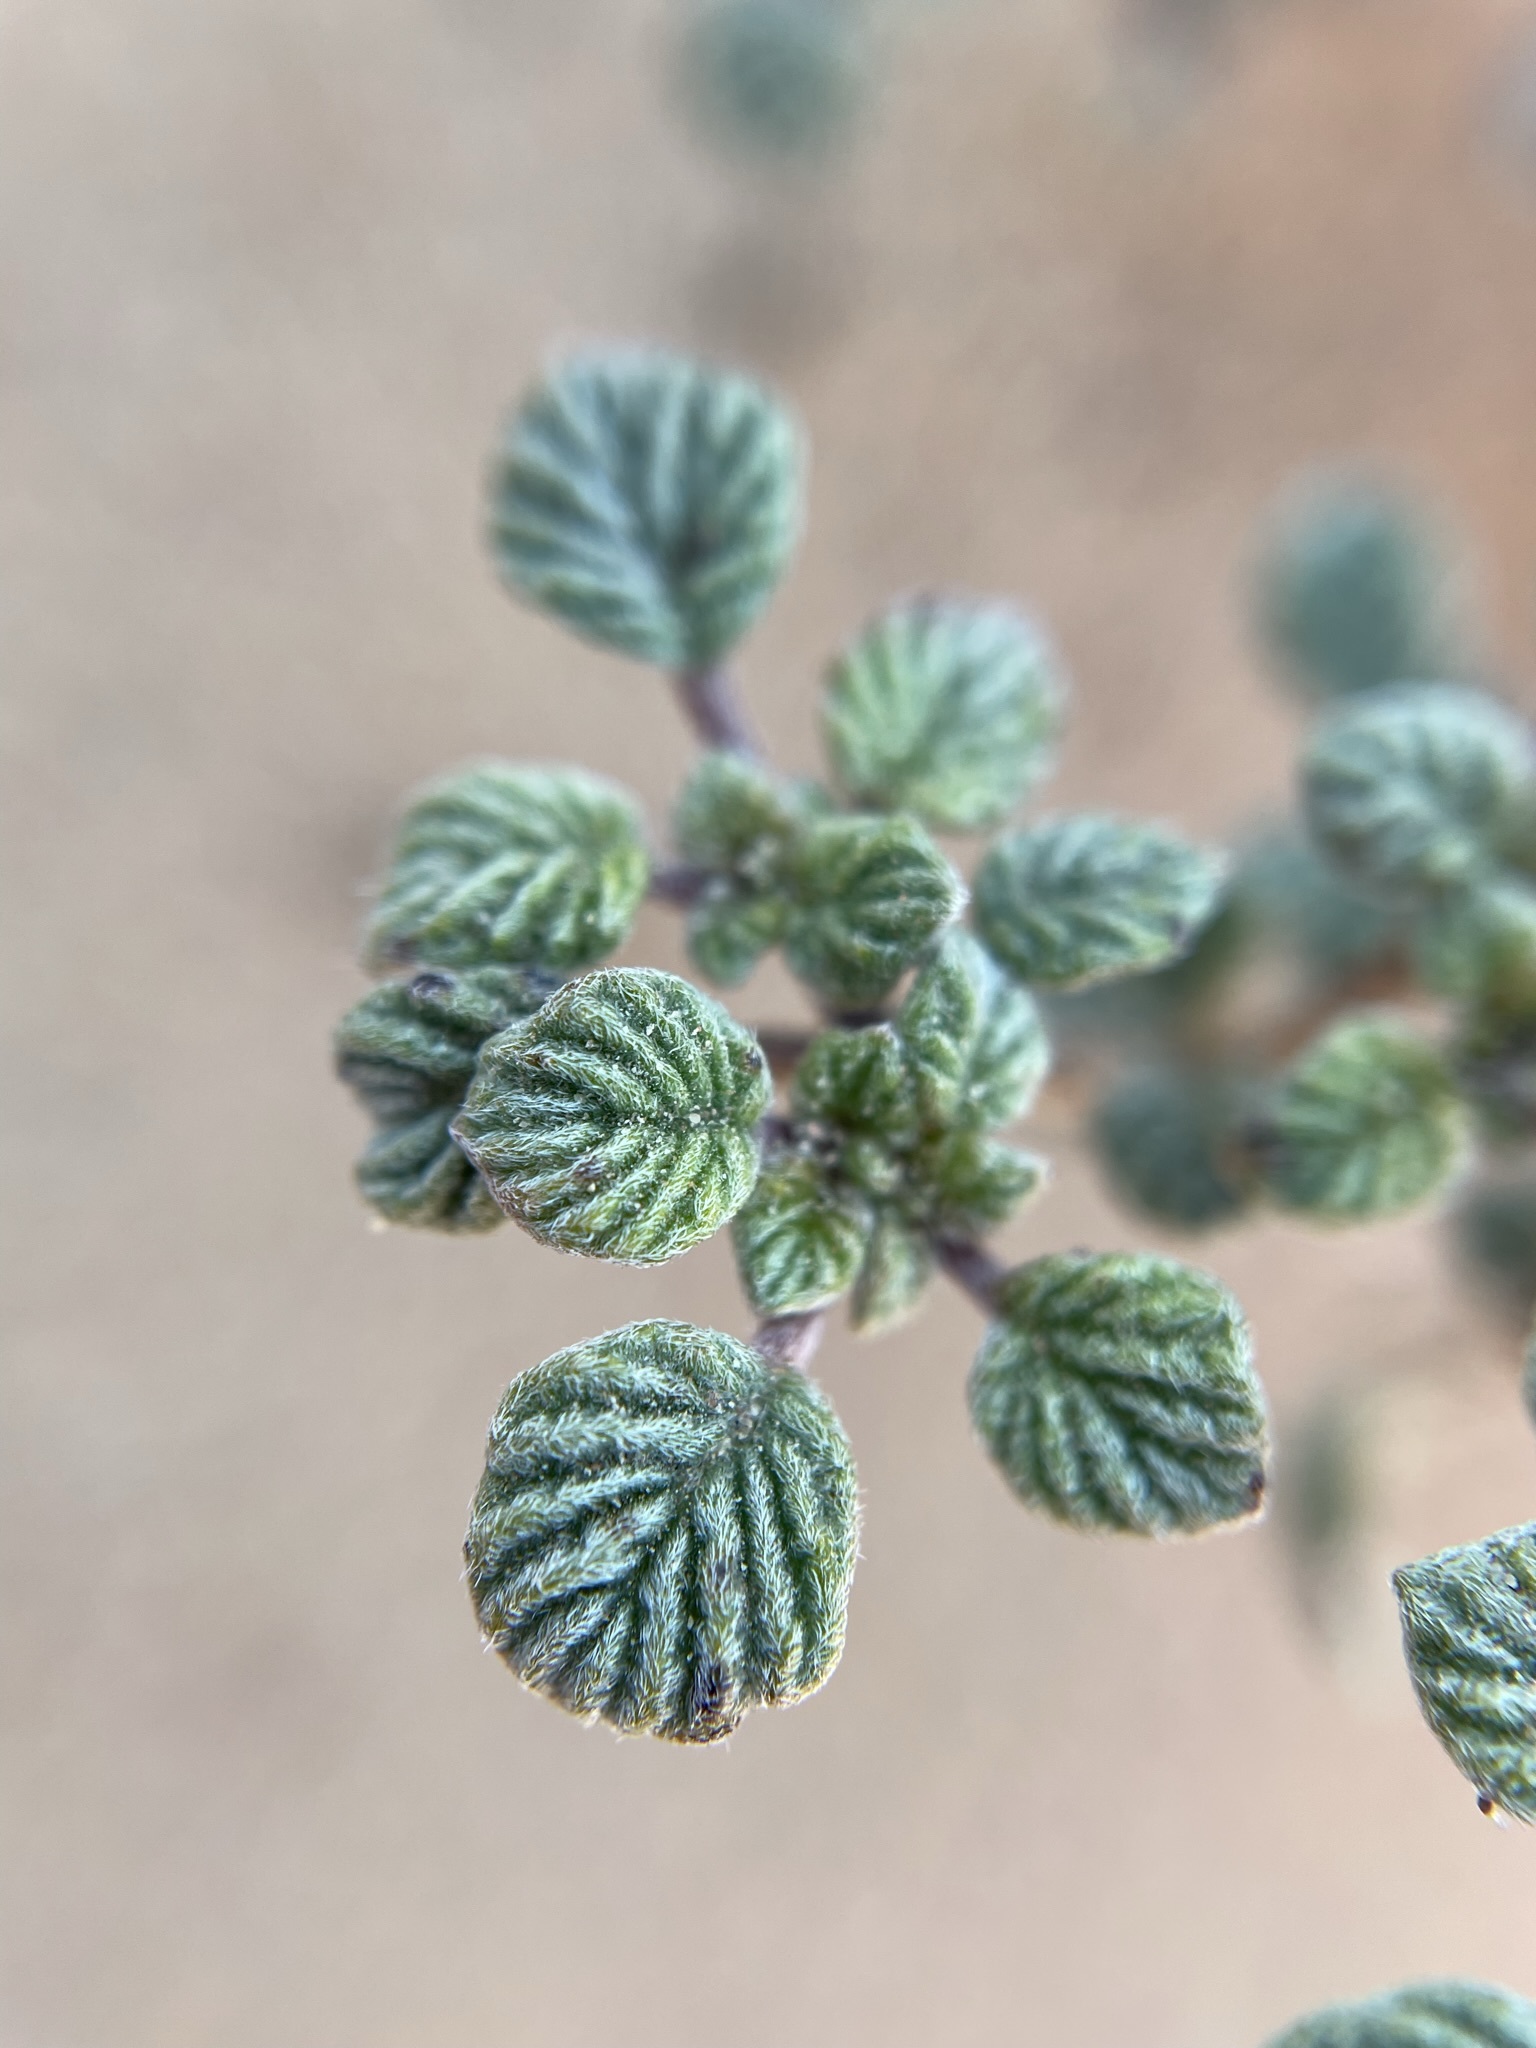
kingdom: Plantae
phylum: Tracheophyta
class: Magnoliopsida
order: Boraginales
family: Ehretiaceae
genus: Tiquilia
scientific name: Tiquilia plicata
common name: Fan-leaf tiquilia
